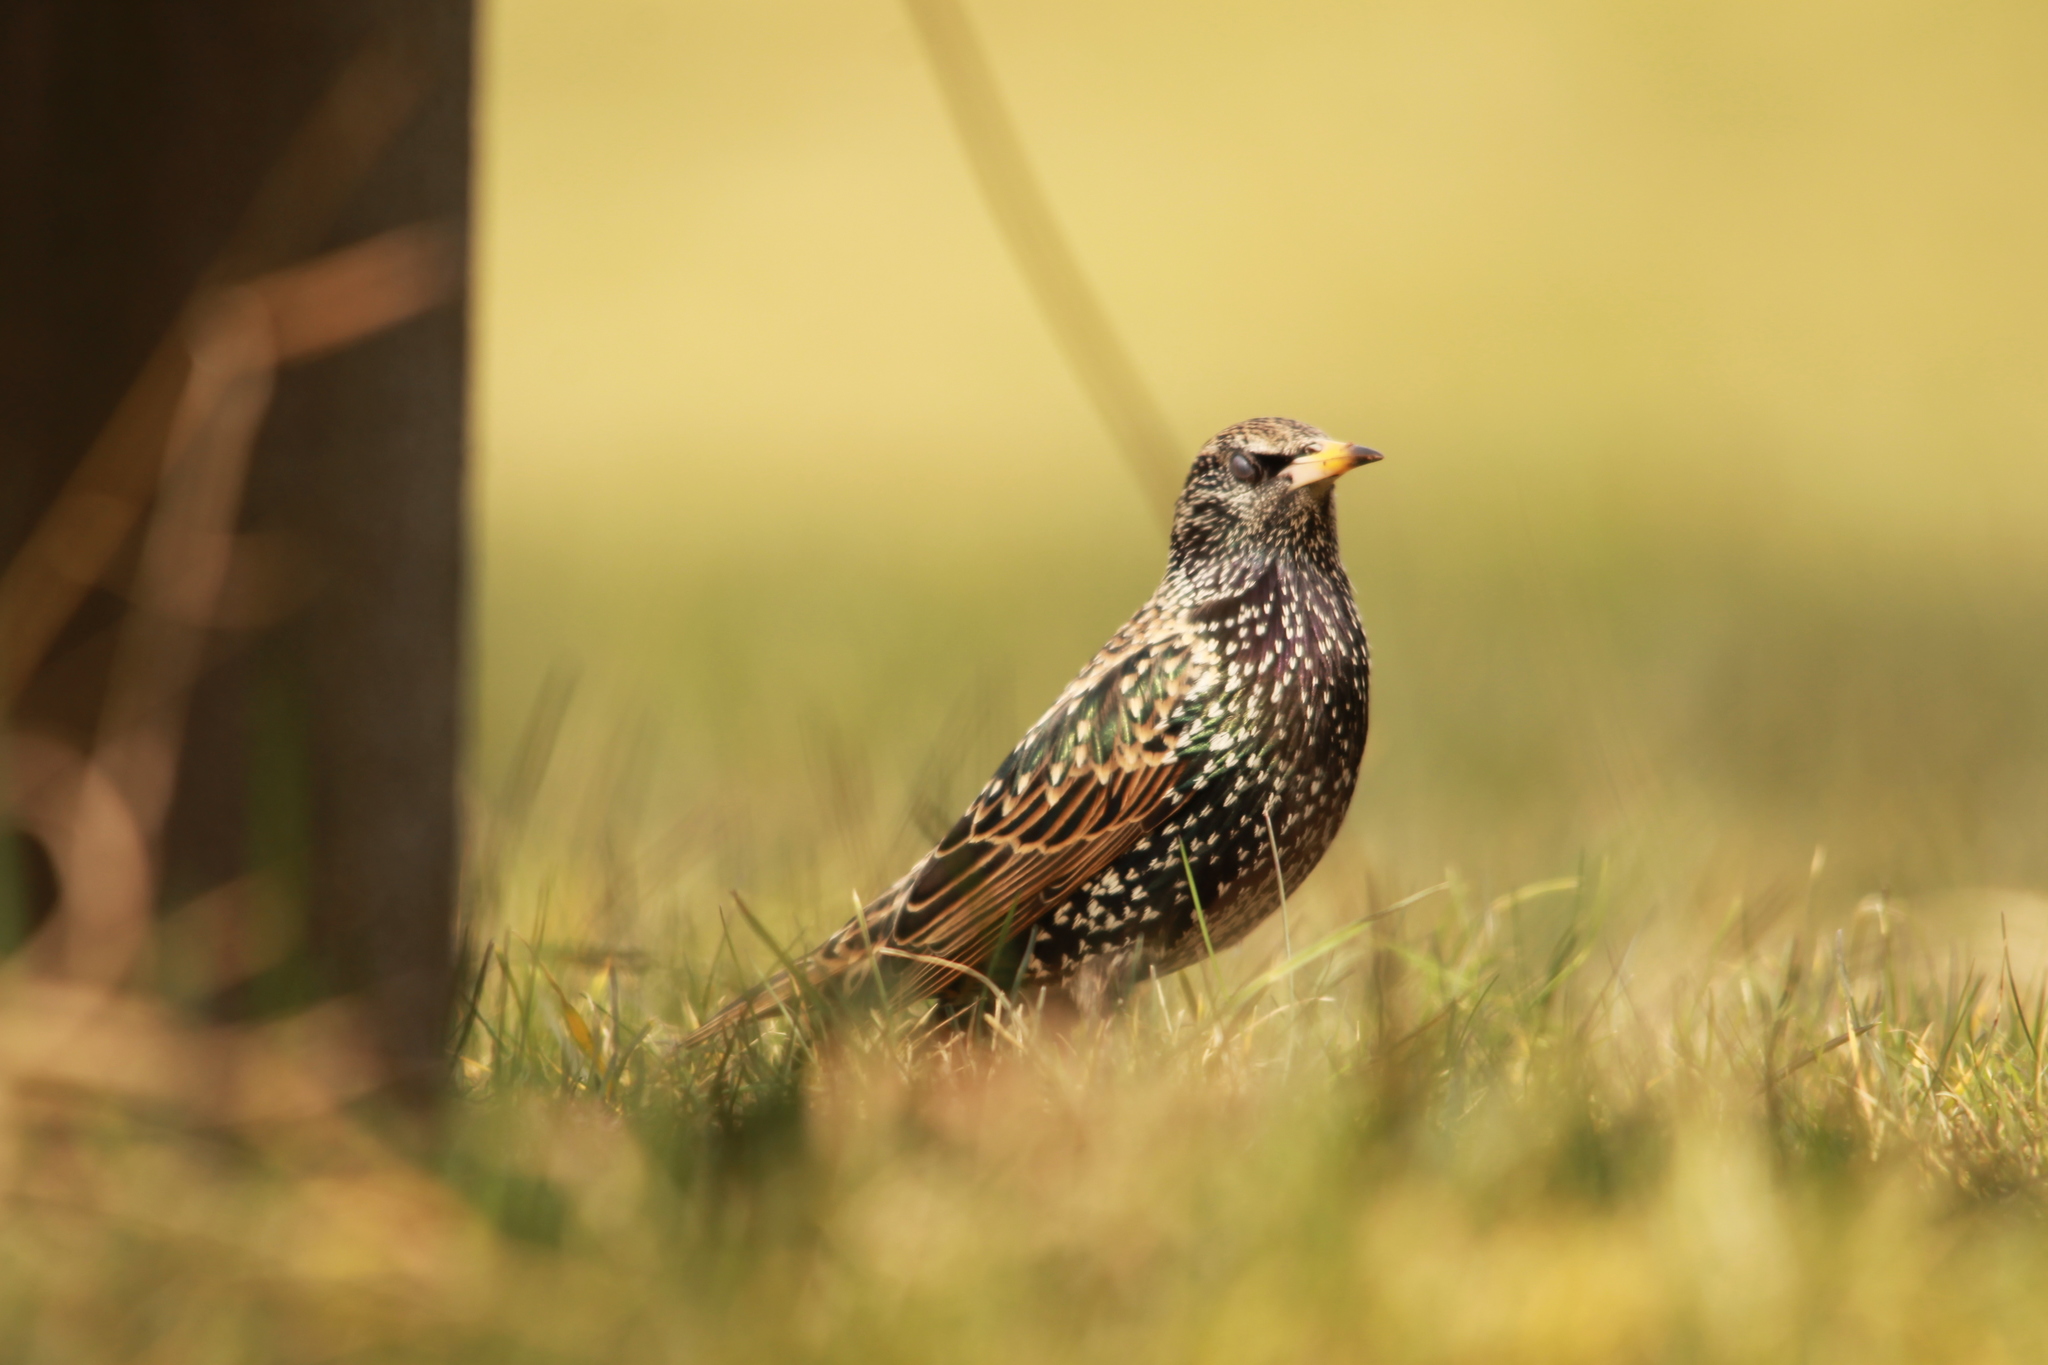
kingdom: Animalia
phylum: Chordata
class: Aves
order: Passeriformes
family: Sturnidae
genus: Sturnus
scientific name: Sturnus vulgaris
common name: Common starling
